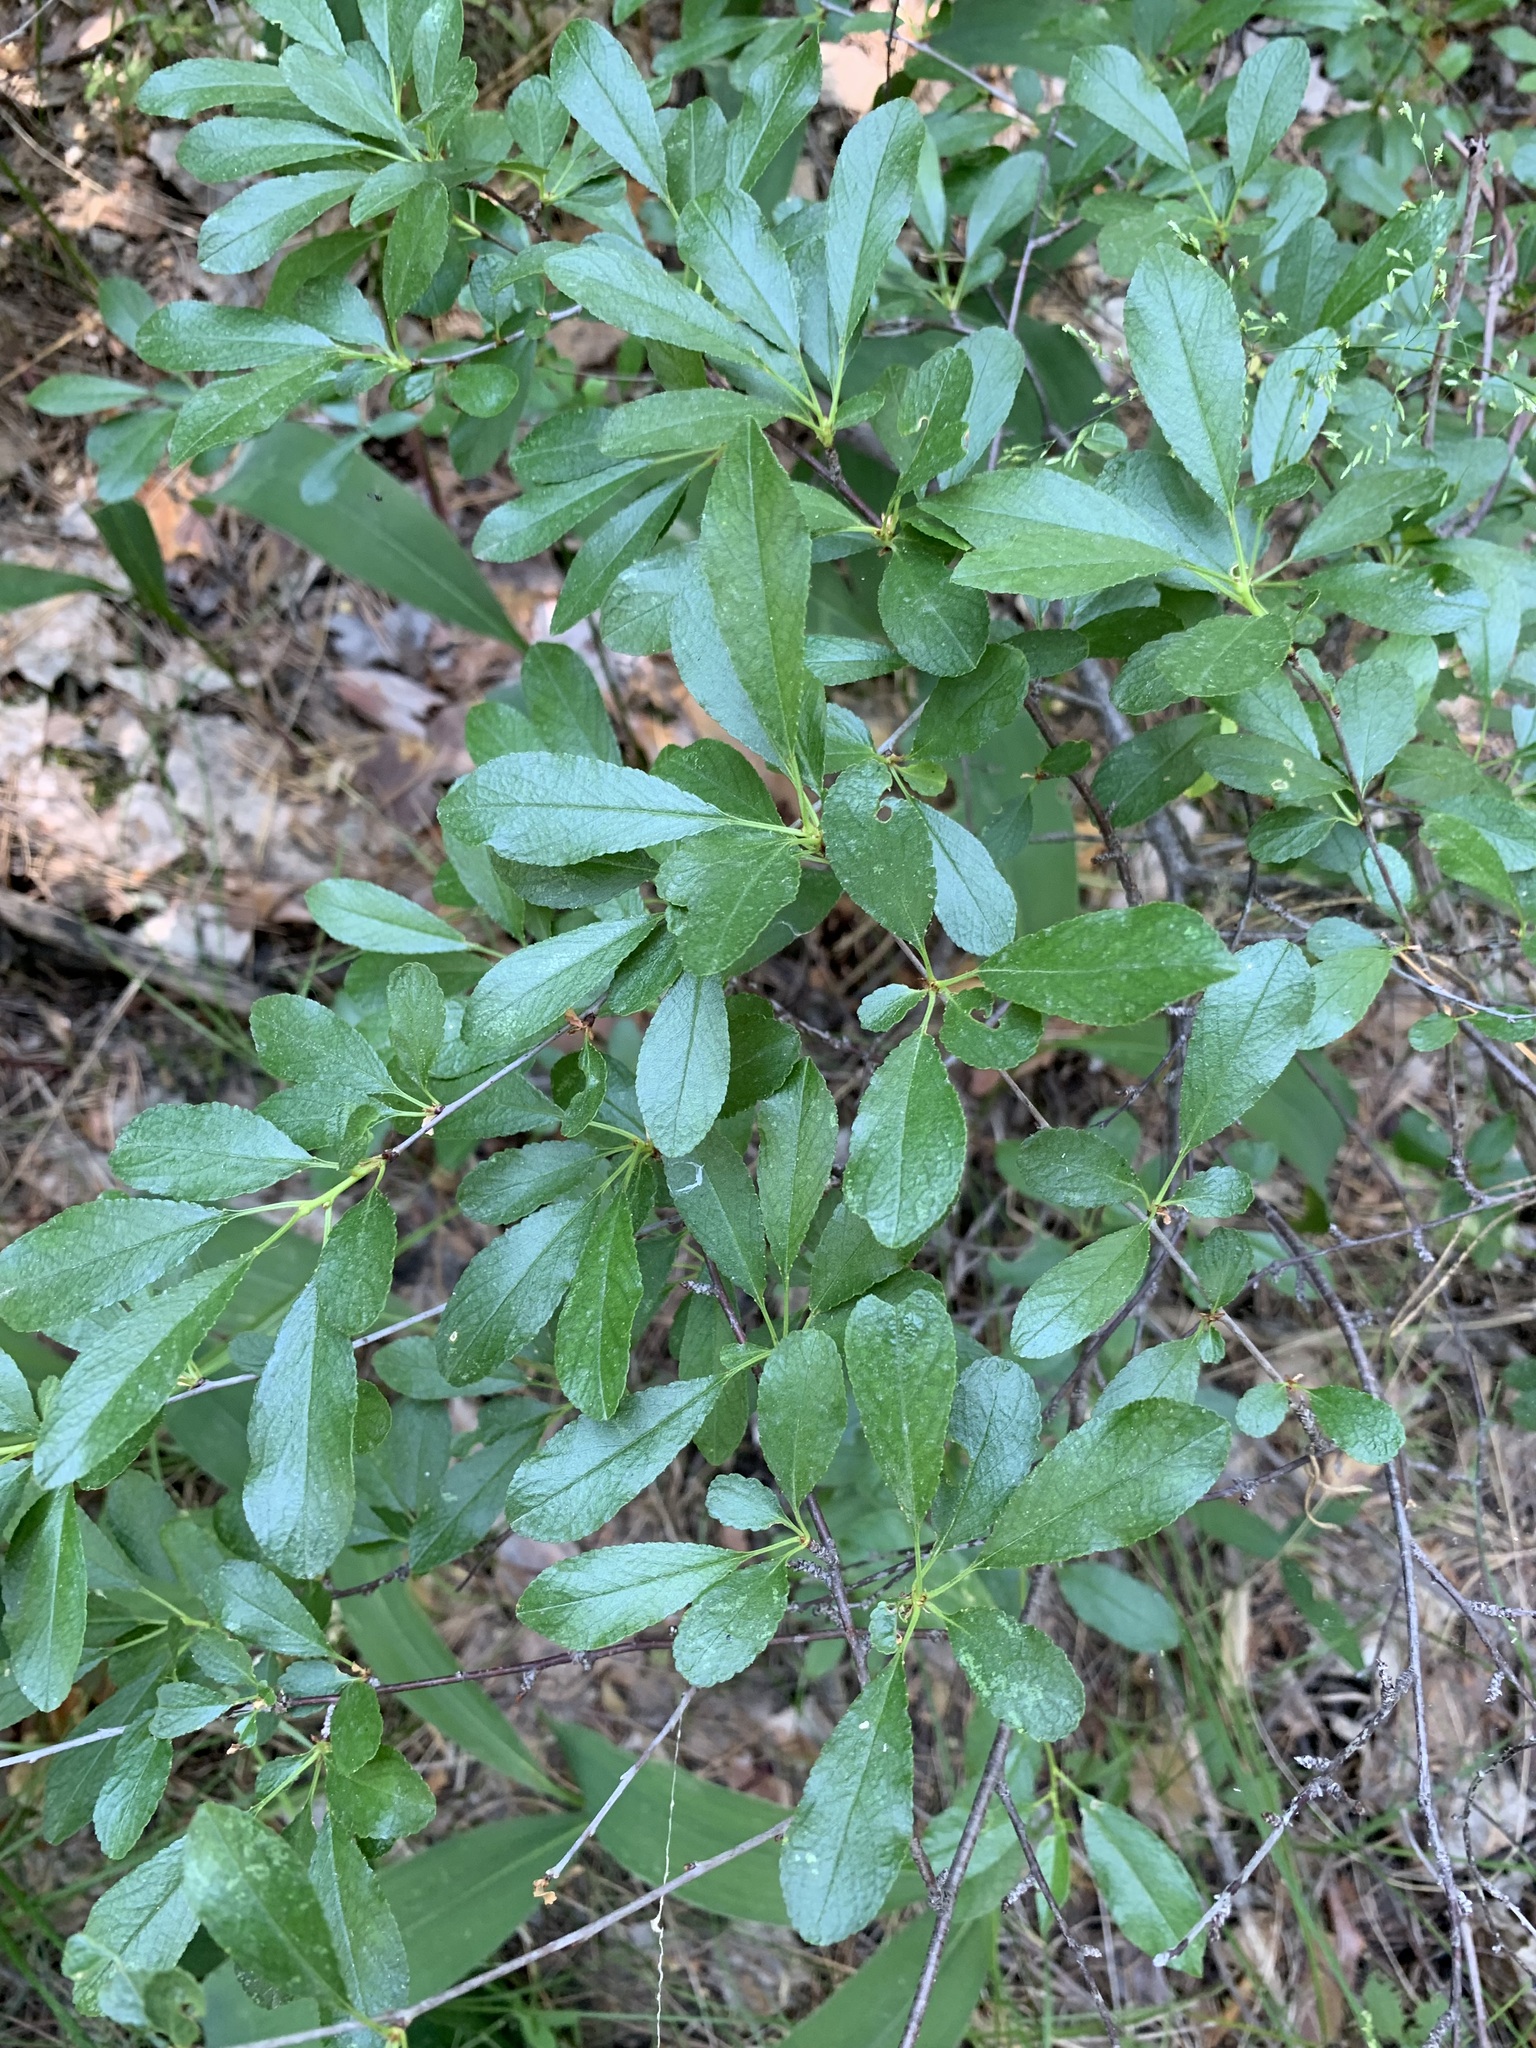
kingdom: Plantae
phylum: Tracheophyta
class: Magnoliopsida
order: Rosales
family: Rosaceae
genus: Prunus
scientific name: Prunus fruticosa
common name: European dwarf cherry
